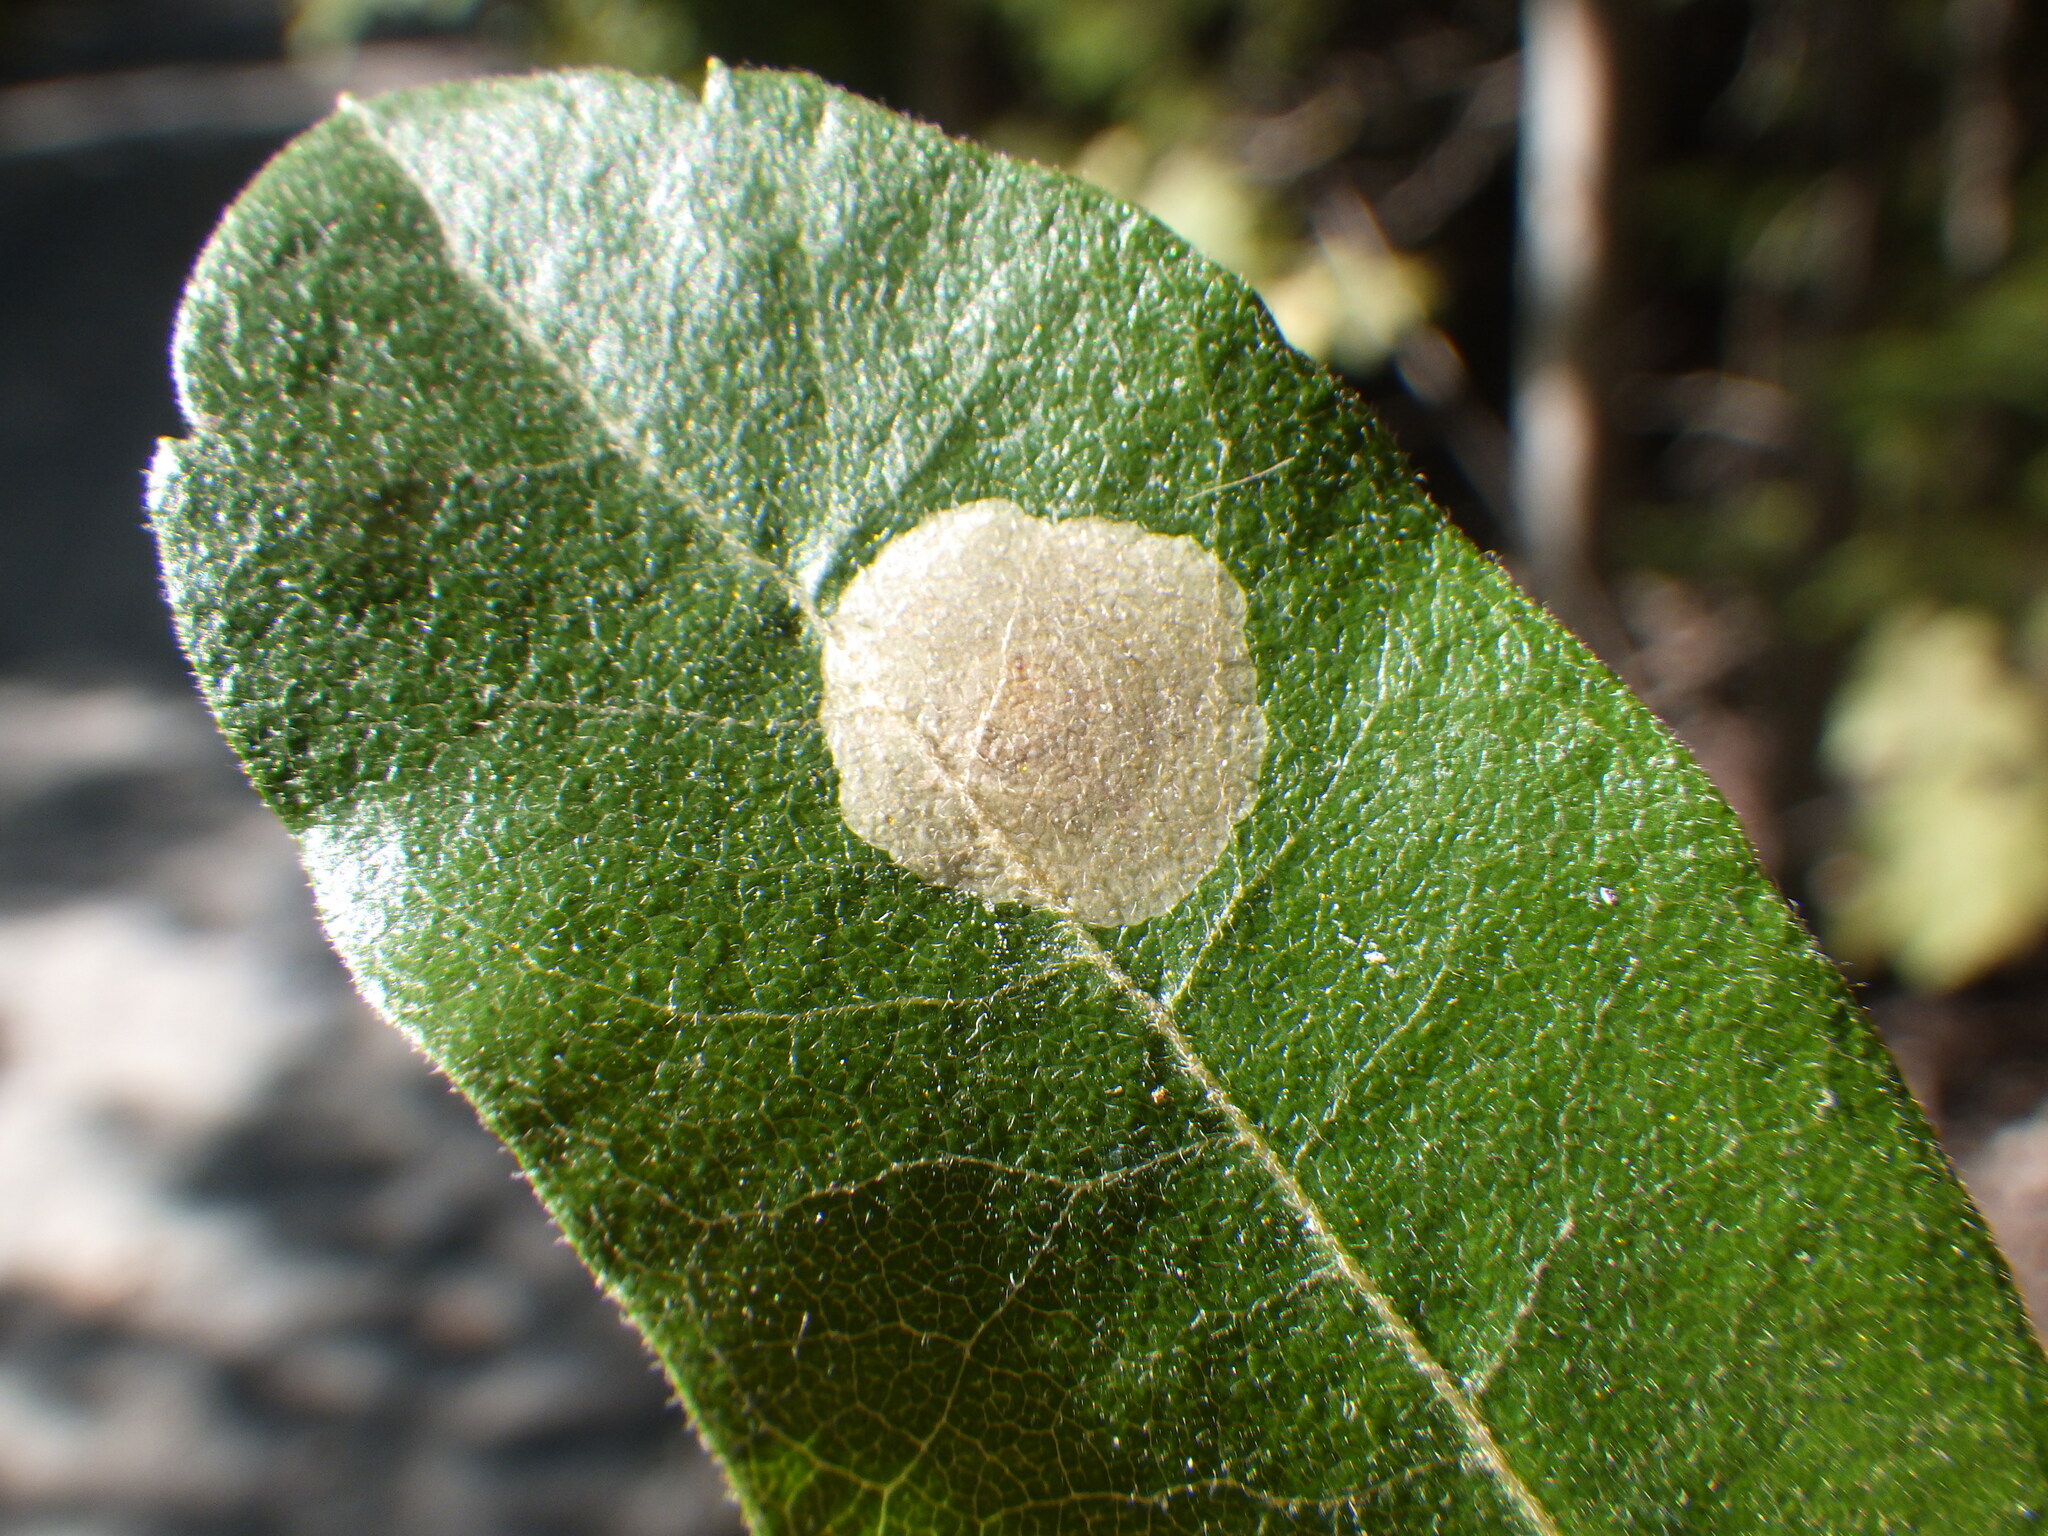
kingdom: Animalia
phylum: Arthropoda
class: Insecta
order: Lepidoptera
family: Gracillariidae
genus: Cameraria
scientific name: Cameraria picturatella
